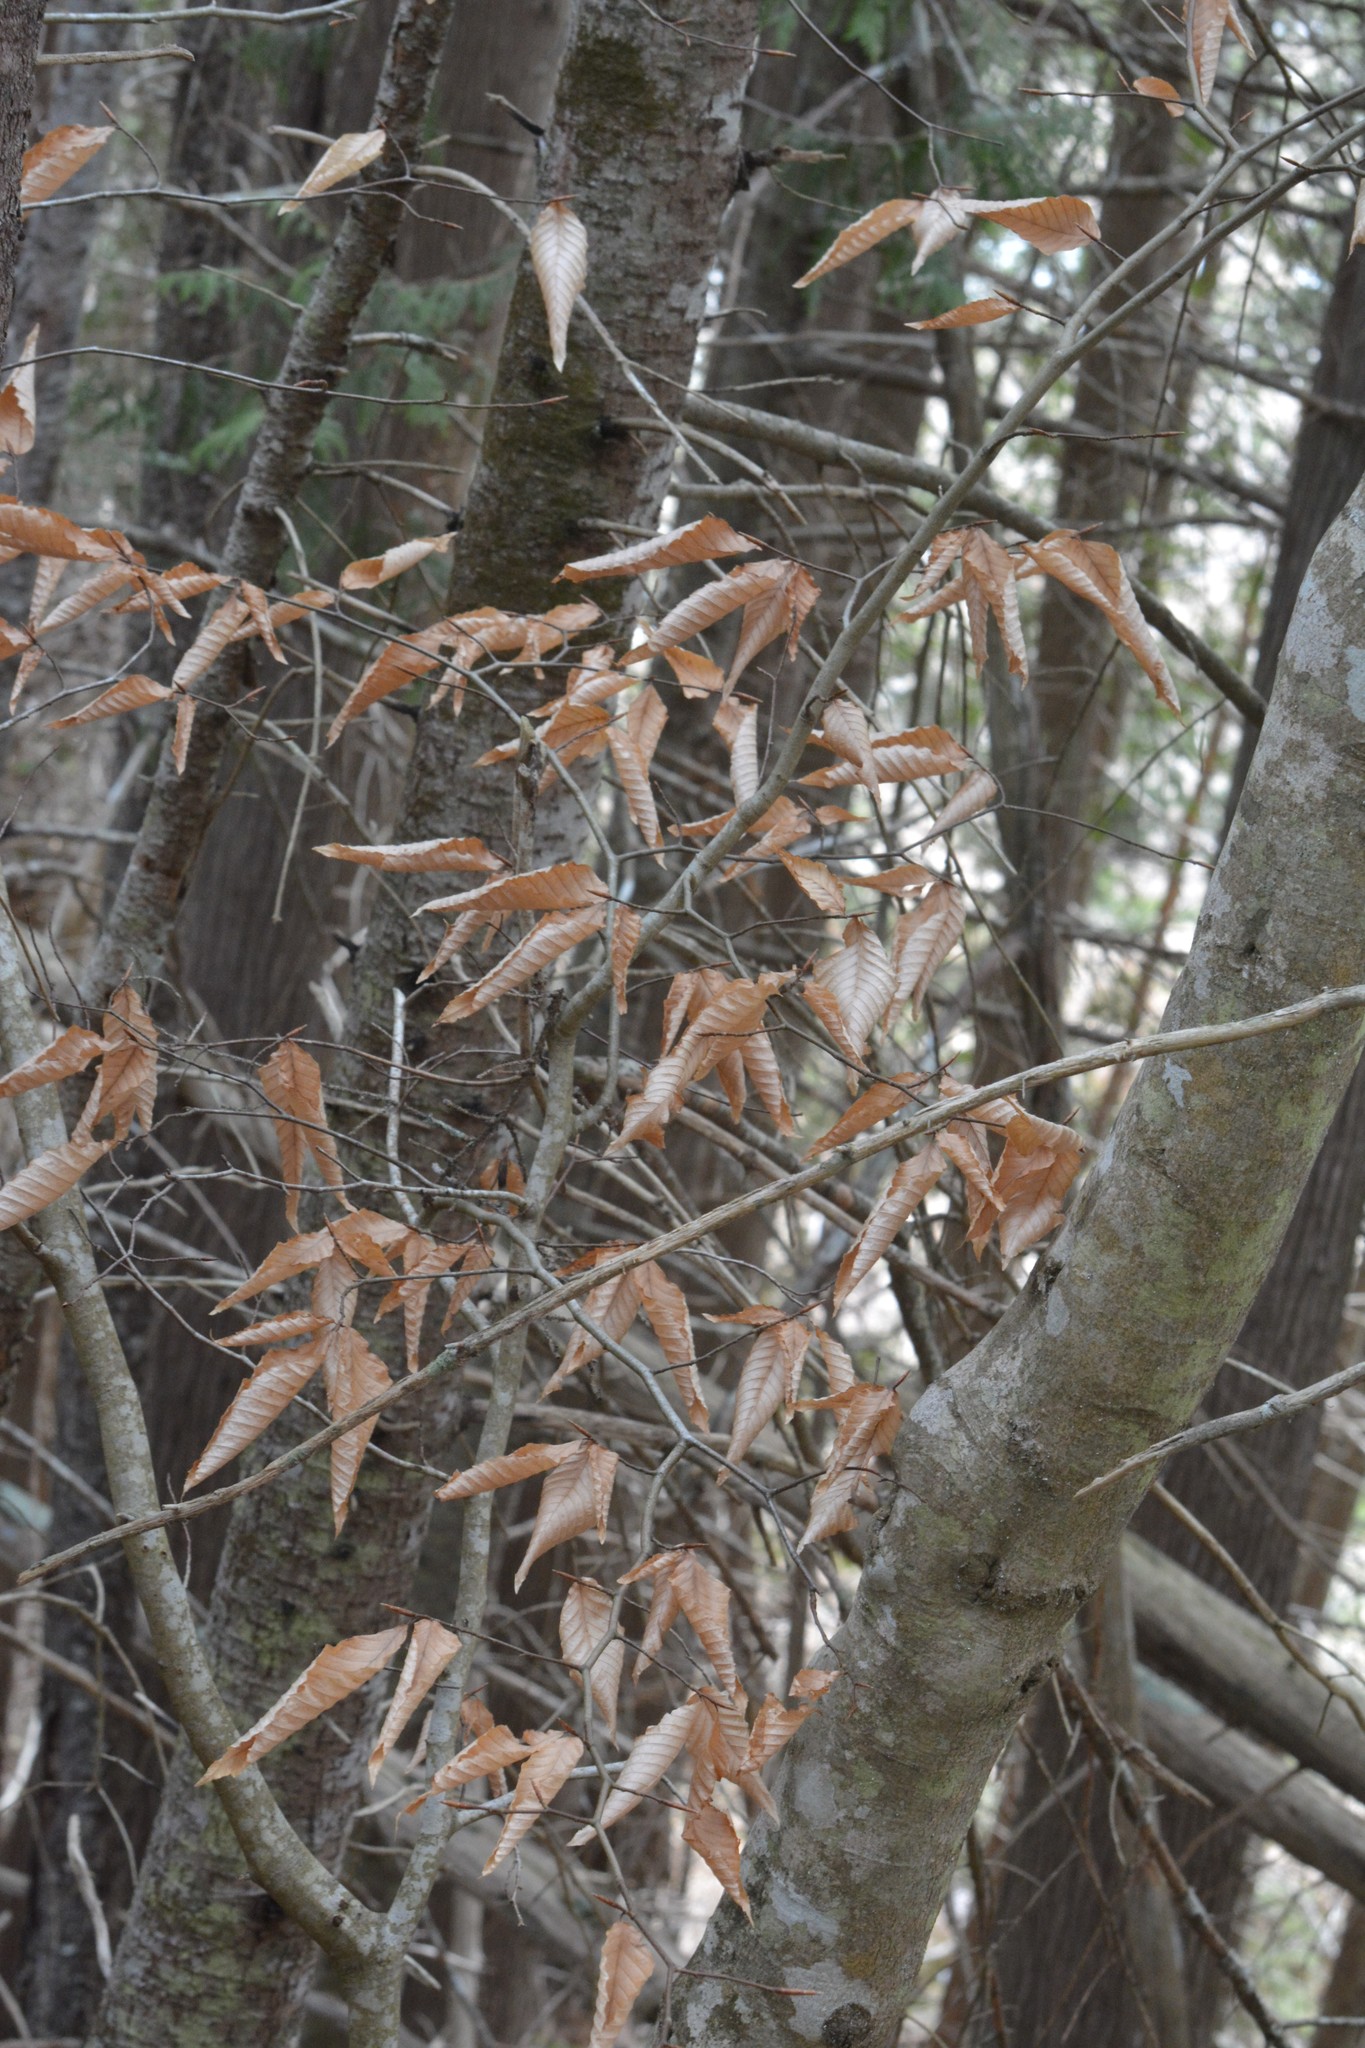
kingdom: Plantae
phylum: Tracheophyta
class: Magnoliopsida
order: Fagales
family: Fagaceae
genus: Fagus
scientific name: Fagus grandifolia
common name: American beech
